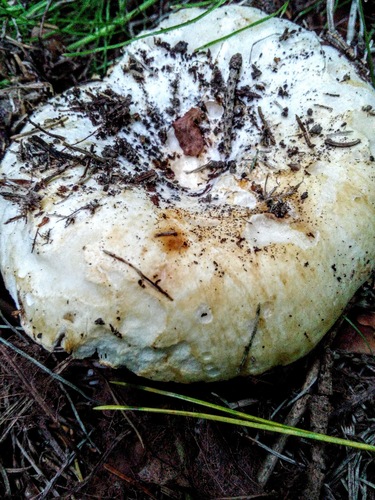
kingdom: Fungi
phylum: Basidiomycota
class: Agaricomycetes
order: Russulales
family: Russulaceae
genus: Russula
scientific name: Russula delica
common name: Milk white brittlegill
